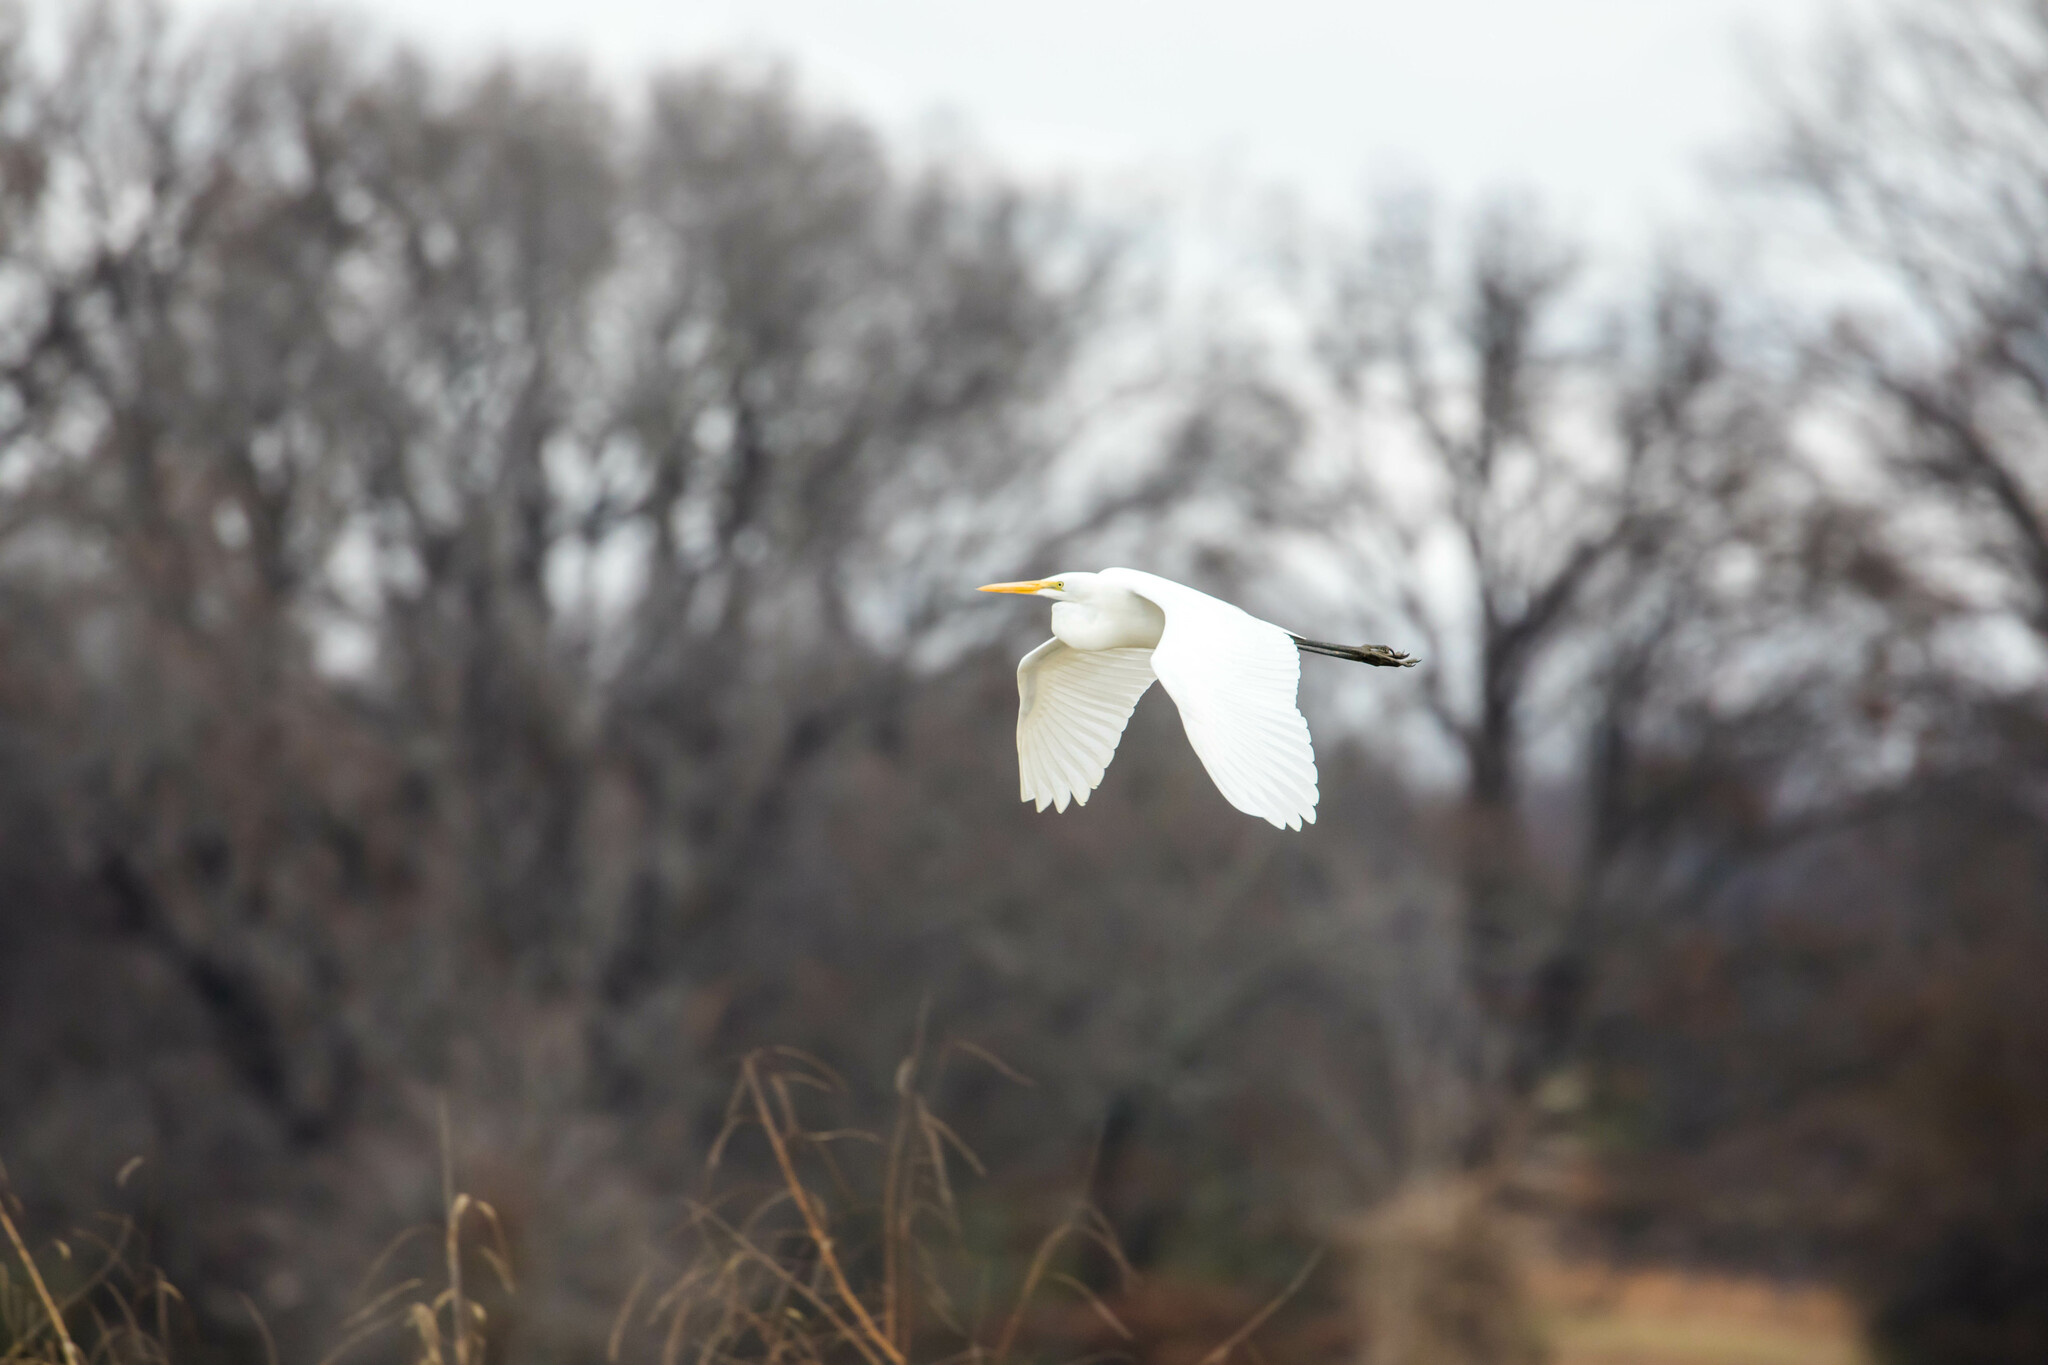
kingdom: Animalia
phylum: Chordata
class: Aves
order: Pelecaniformes
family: Ardeidae
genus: Ardea
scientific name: Ardea alba
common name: Great egret
